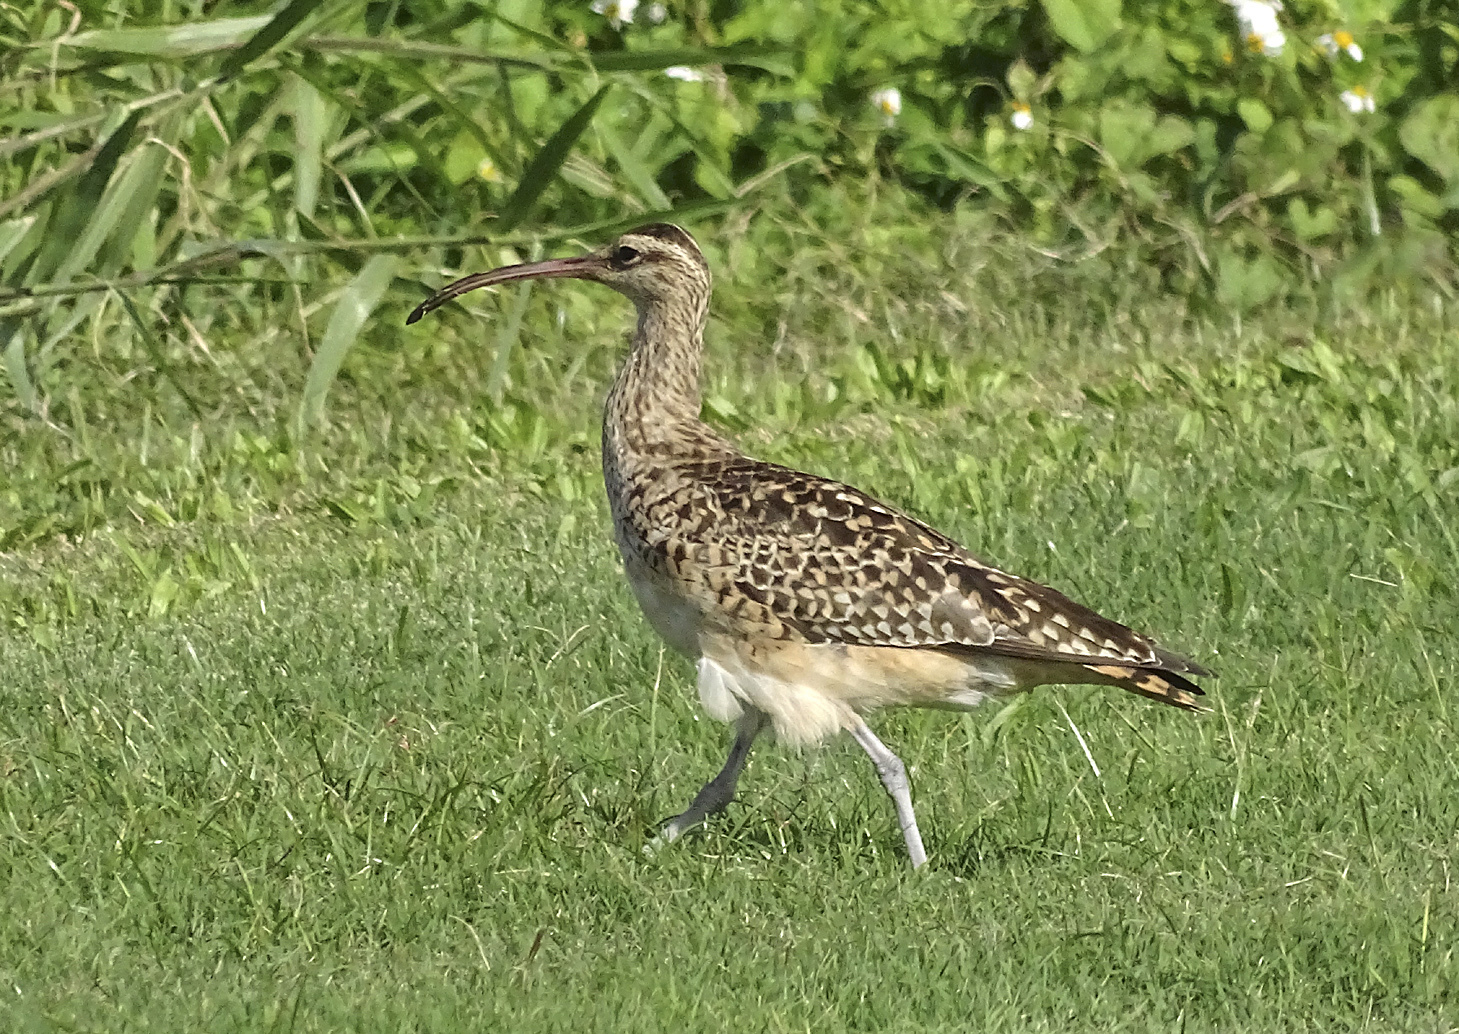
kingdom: Animalia
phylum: Chordata
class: Aves
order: Charadriiformes
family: Scolopacidae
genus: Numenius
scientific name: Numenius tahitiensis
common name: Bristle-thighed curlew
